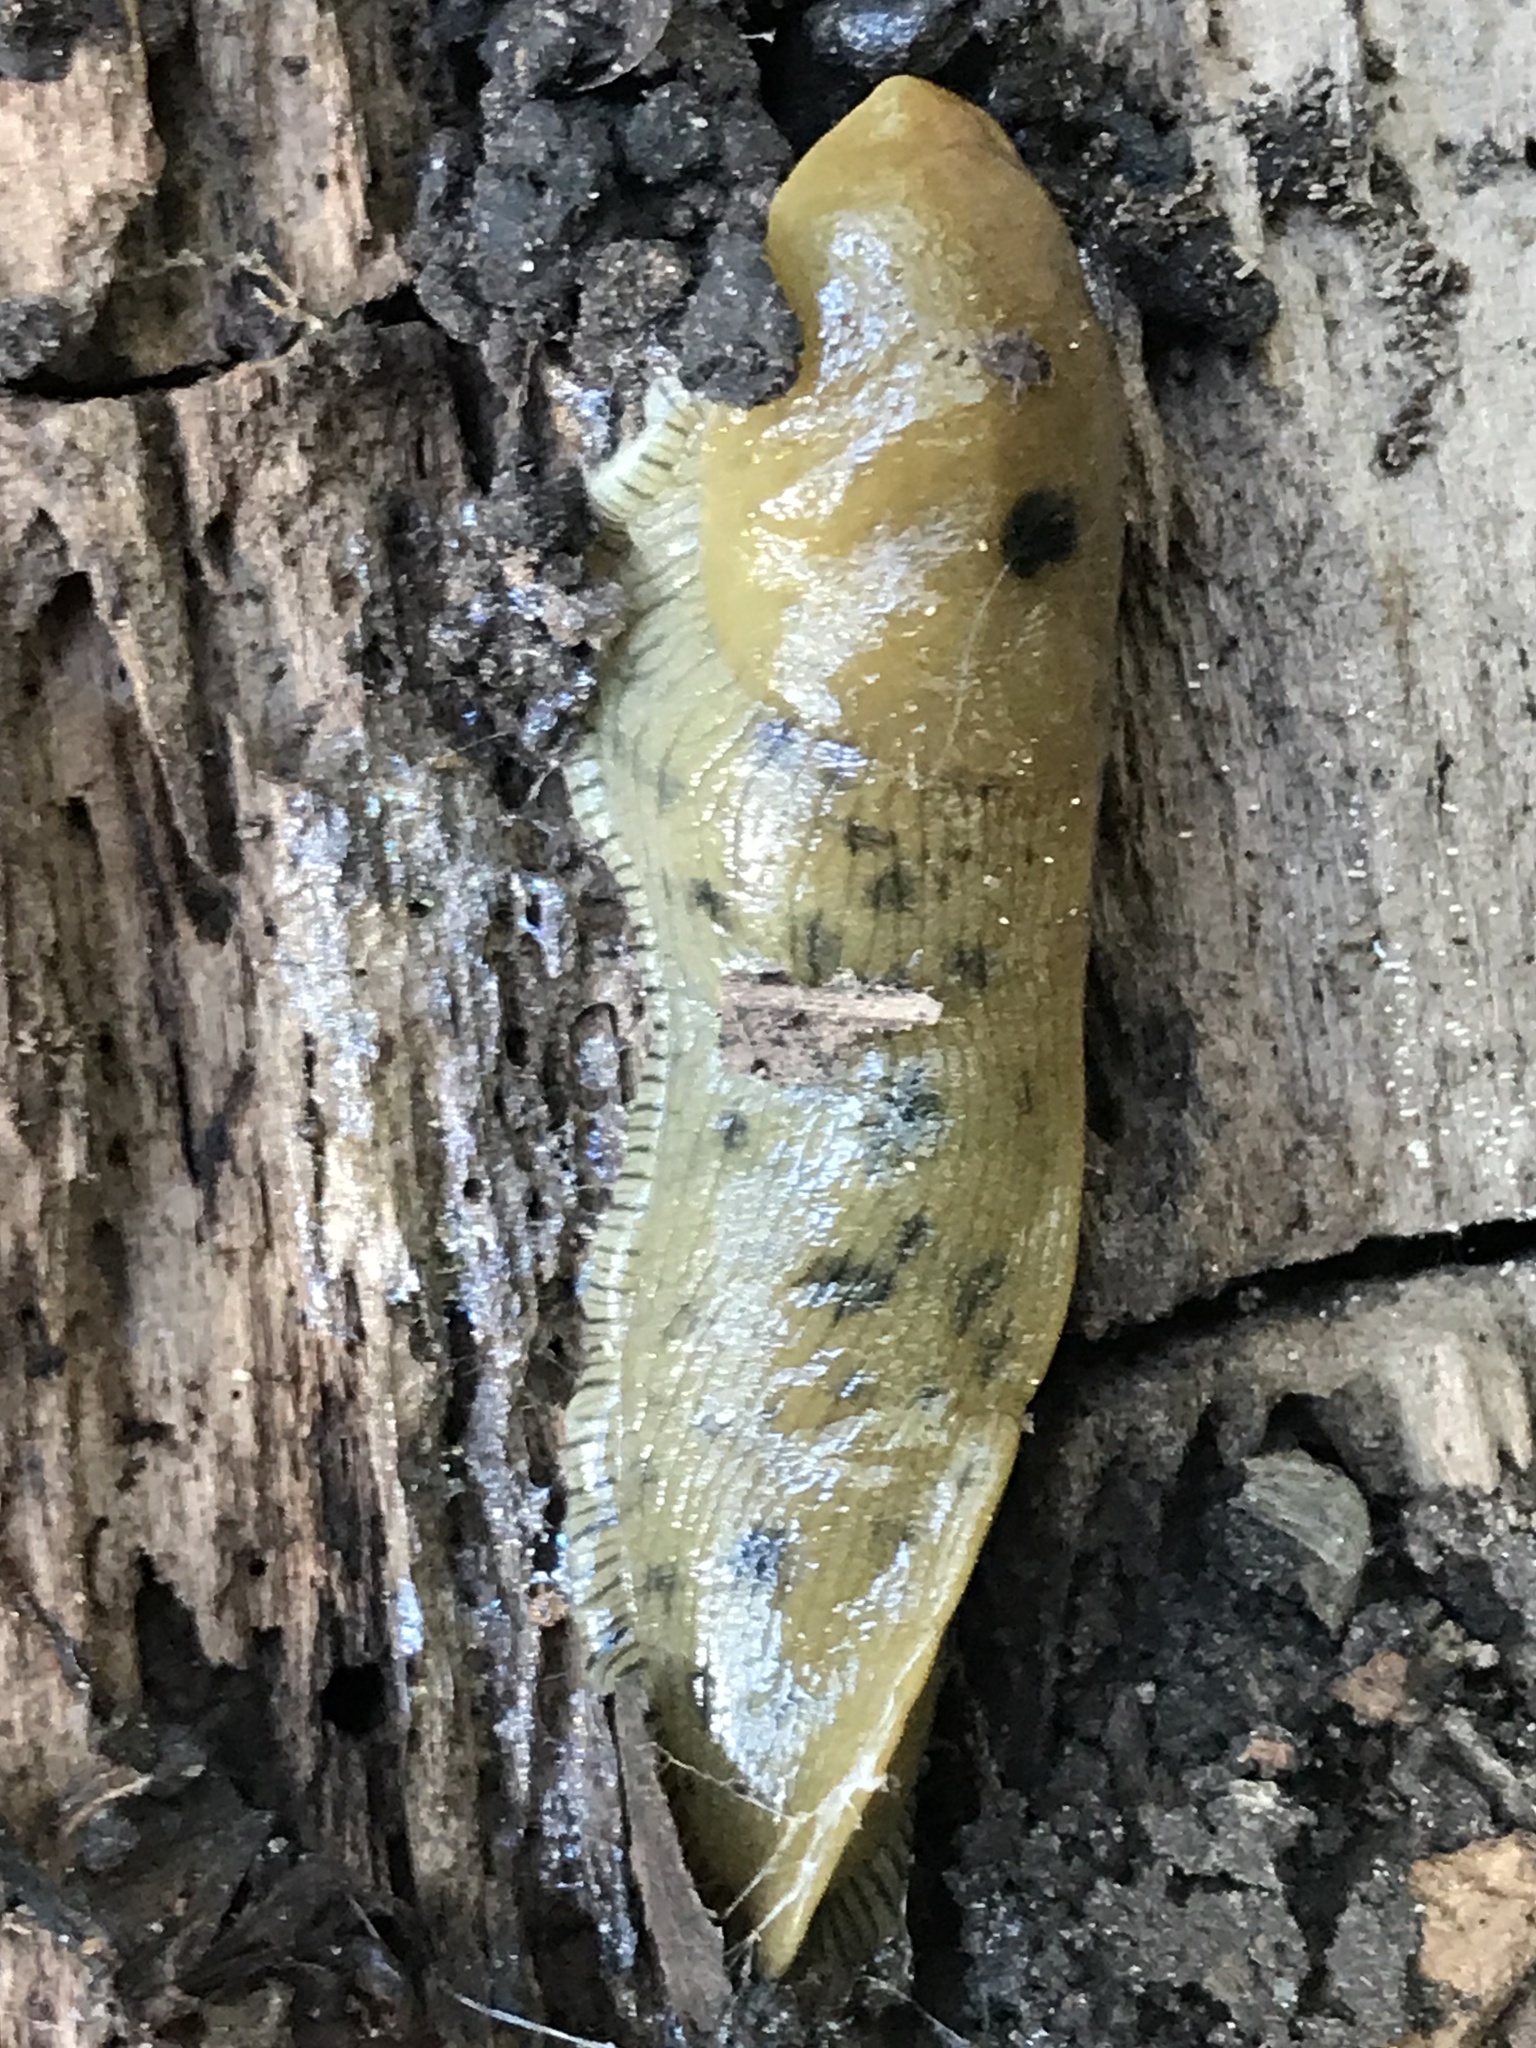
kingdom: Animalia
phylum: Mollusca
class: Gastropoda
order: Stylommatophora
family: Ariolimacidae
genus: Ariolimax
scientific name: Ariolimax buttoni
